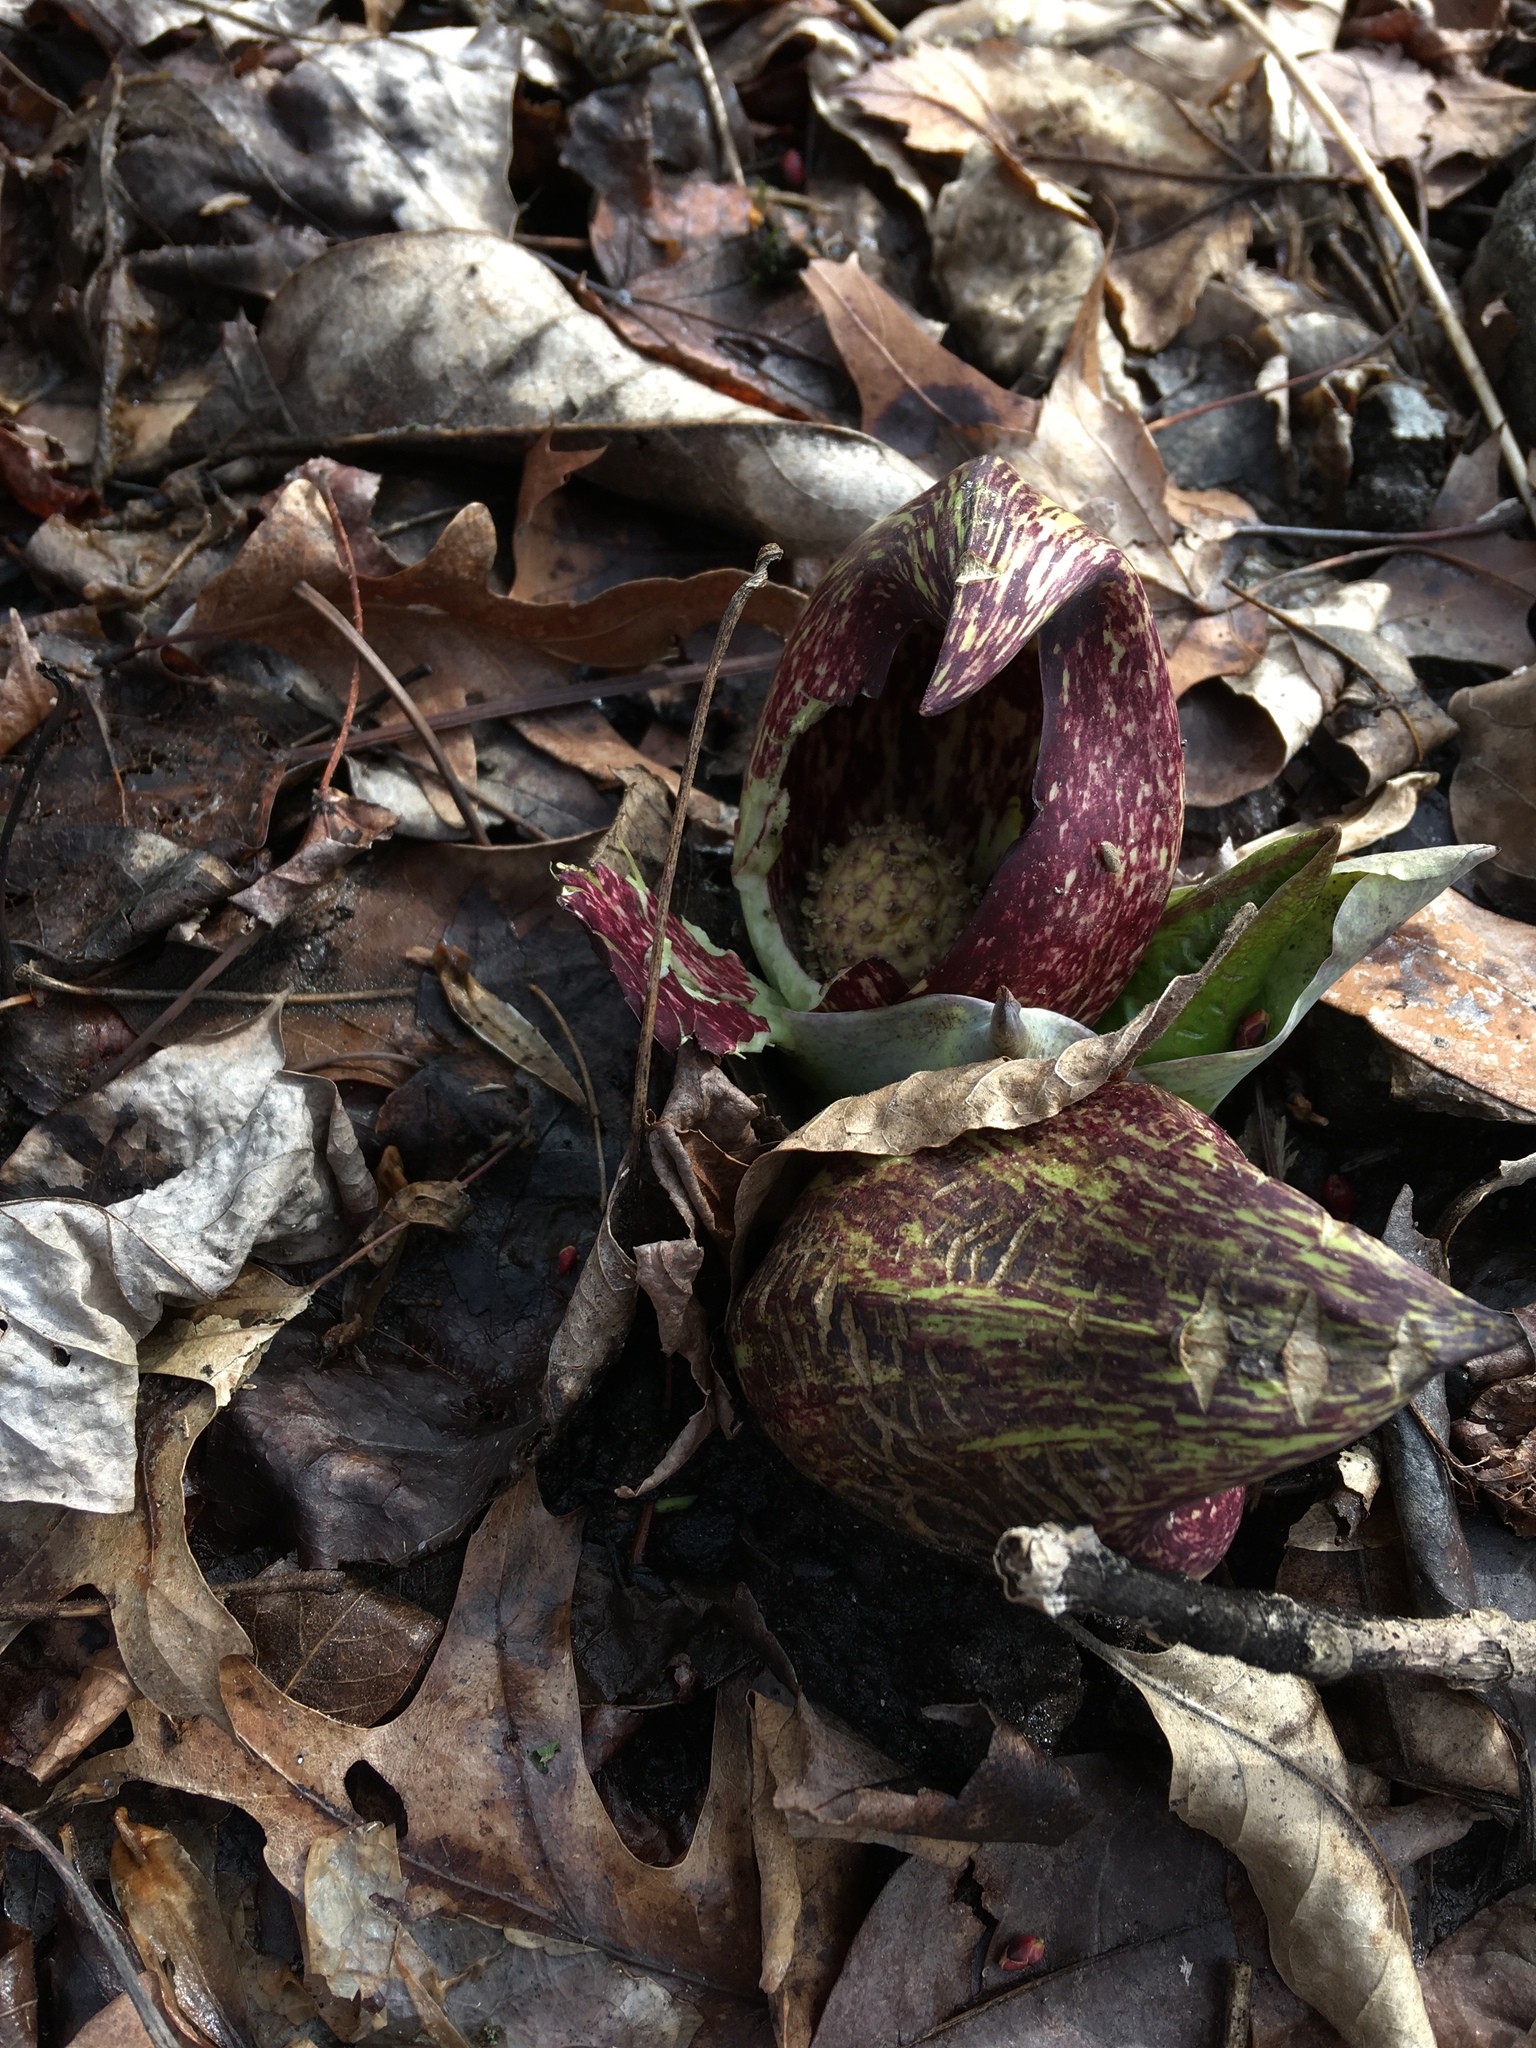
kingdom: Plantae
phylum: Tracheophyta
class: Liliopsida
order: Alismatales
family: Araceae
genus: Symplocarpus
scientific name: Symplocarpus foetidus
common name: Eastern skunk cabbage
